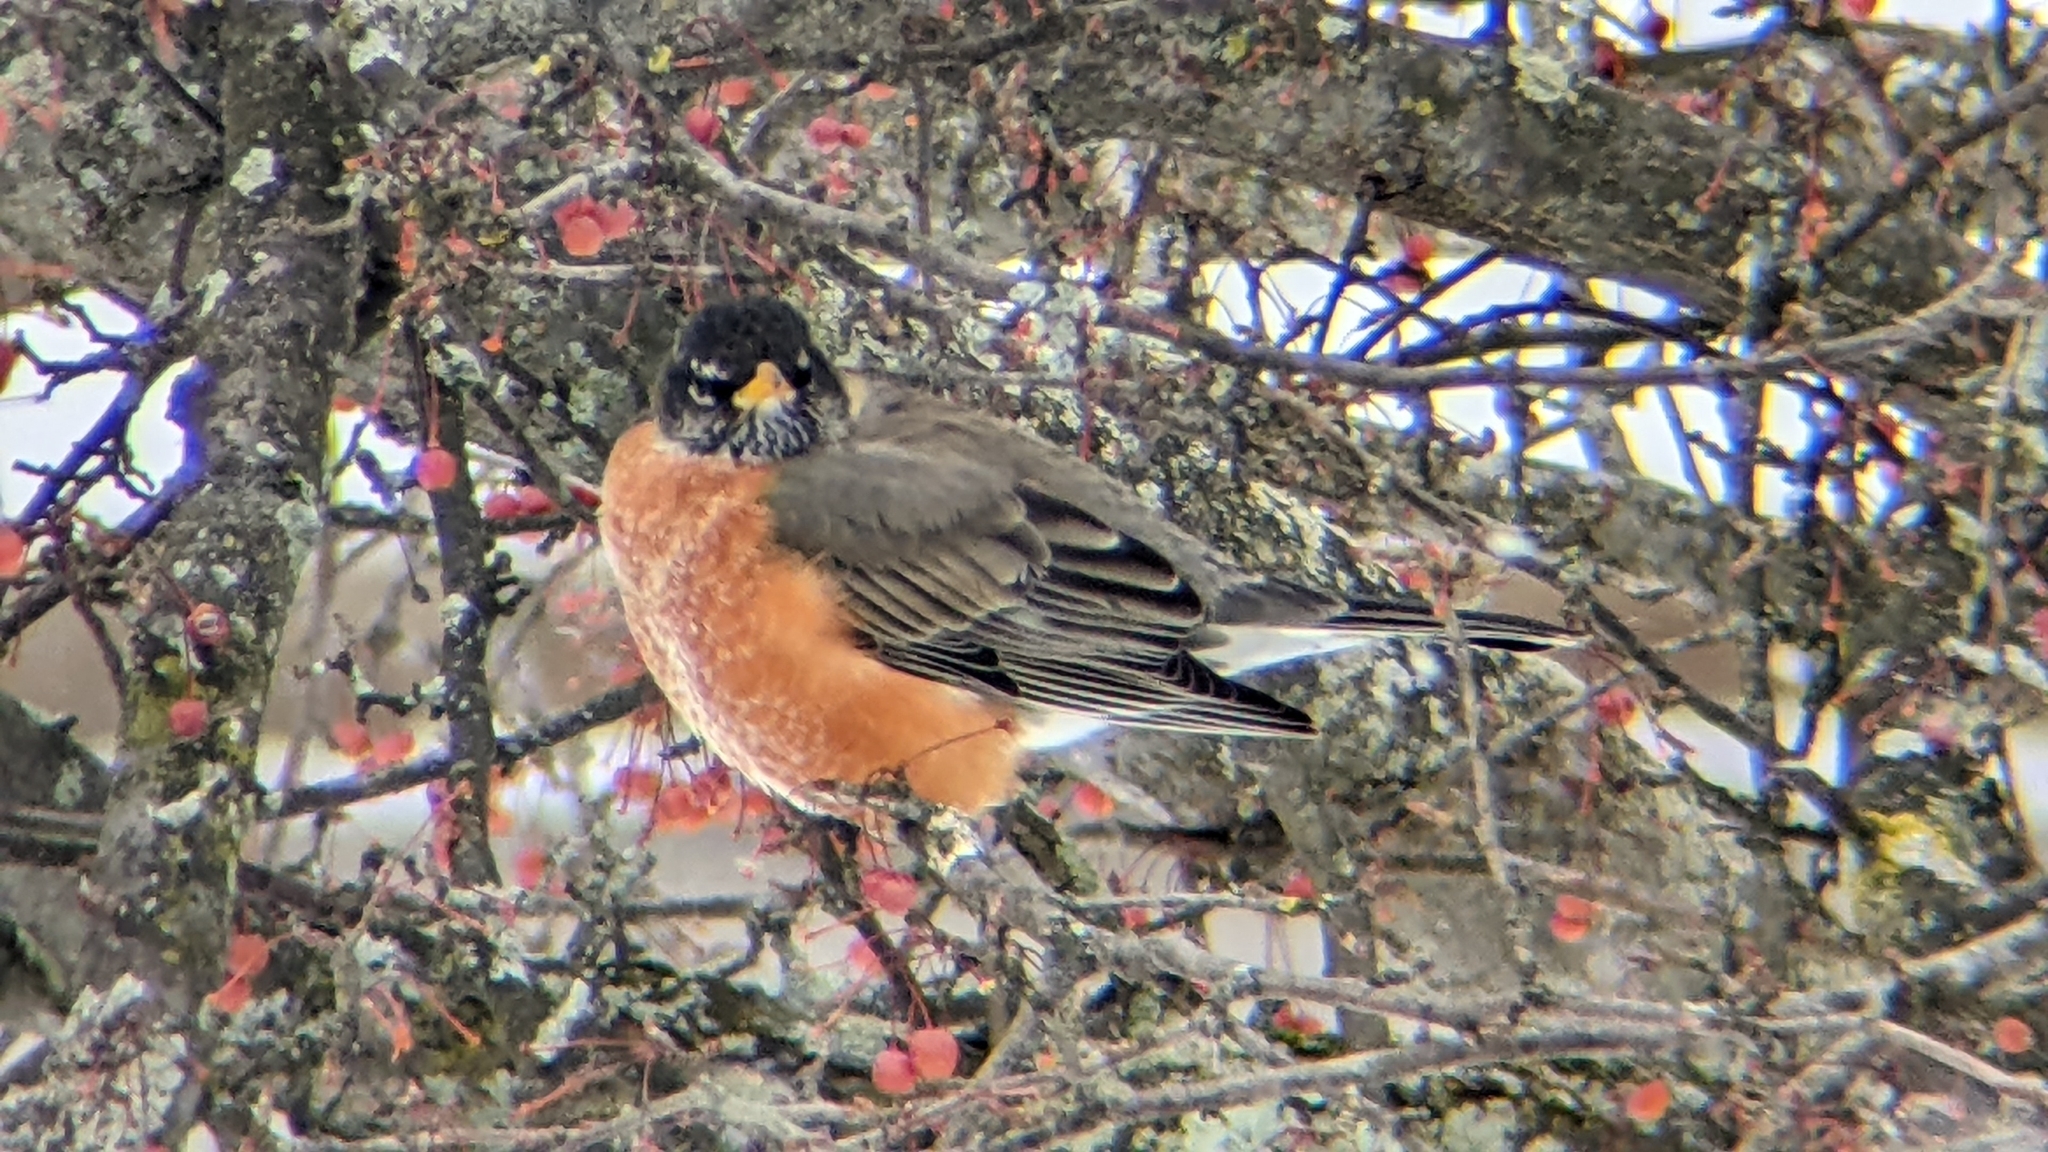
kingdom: Animalia
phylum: Chordata
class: Aves
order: Passeriformes
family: Turdidae
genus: Turdus
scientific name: Turdus migratorius
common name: American robin
